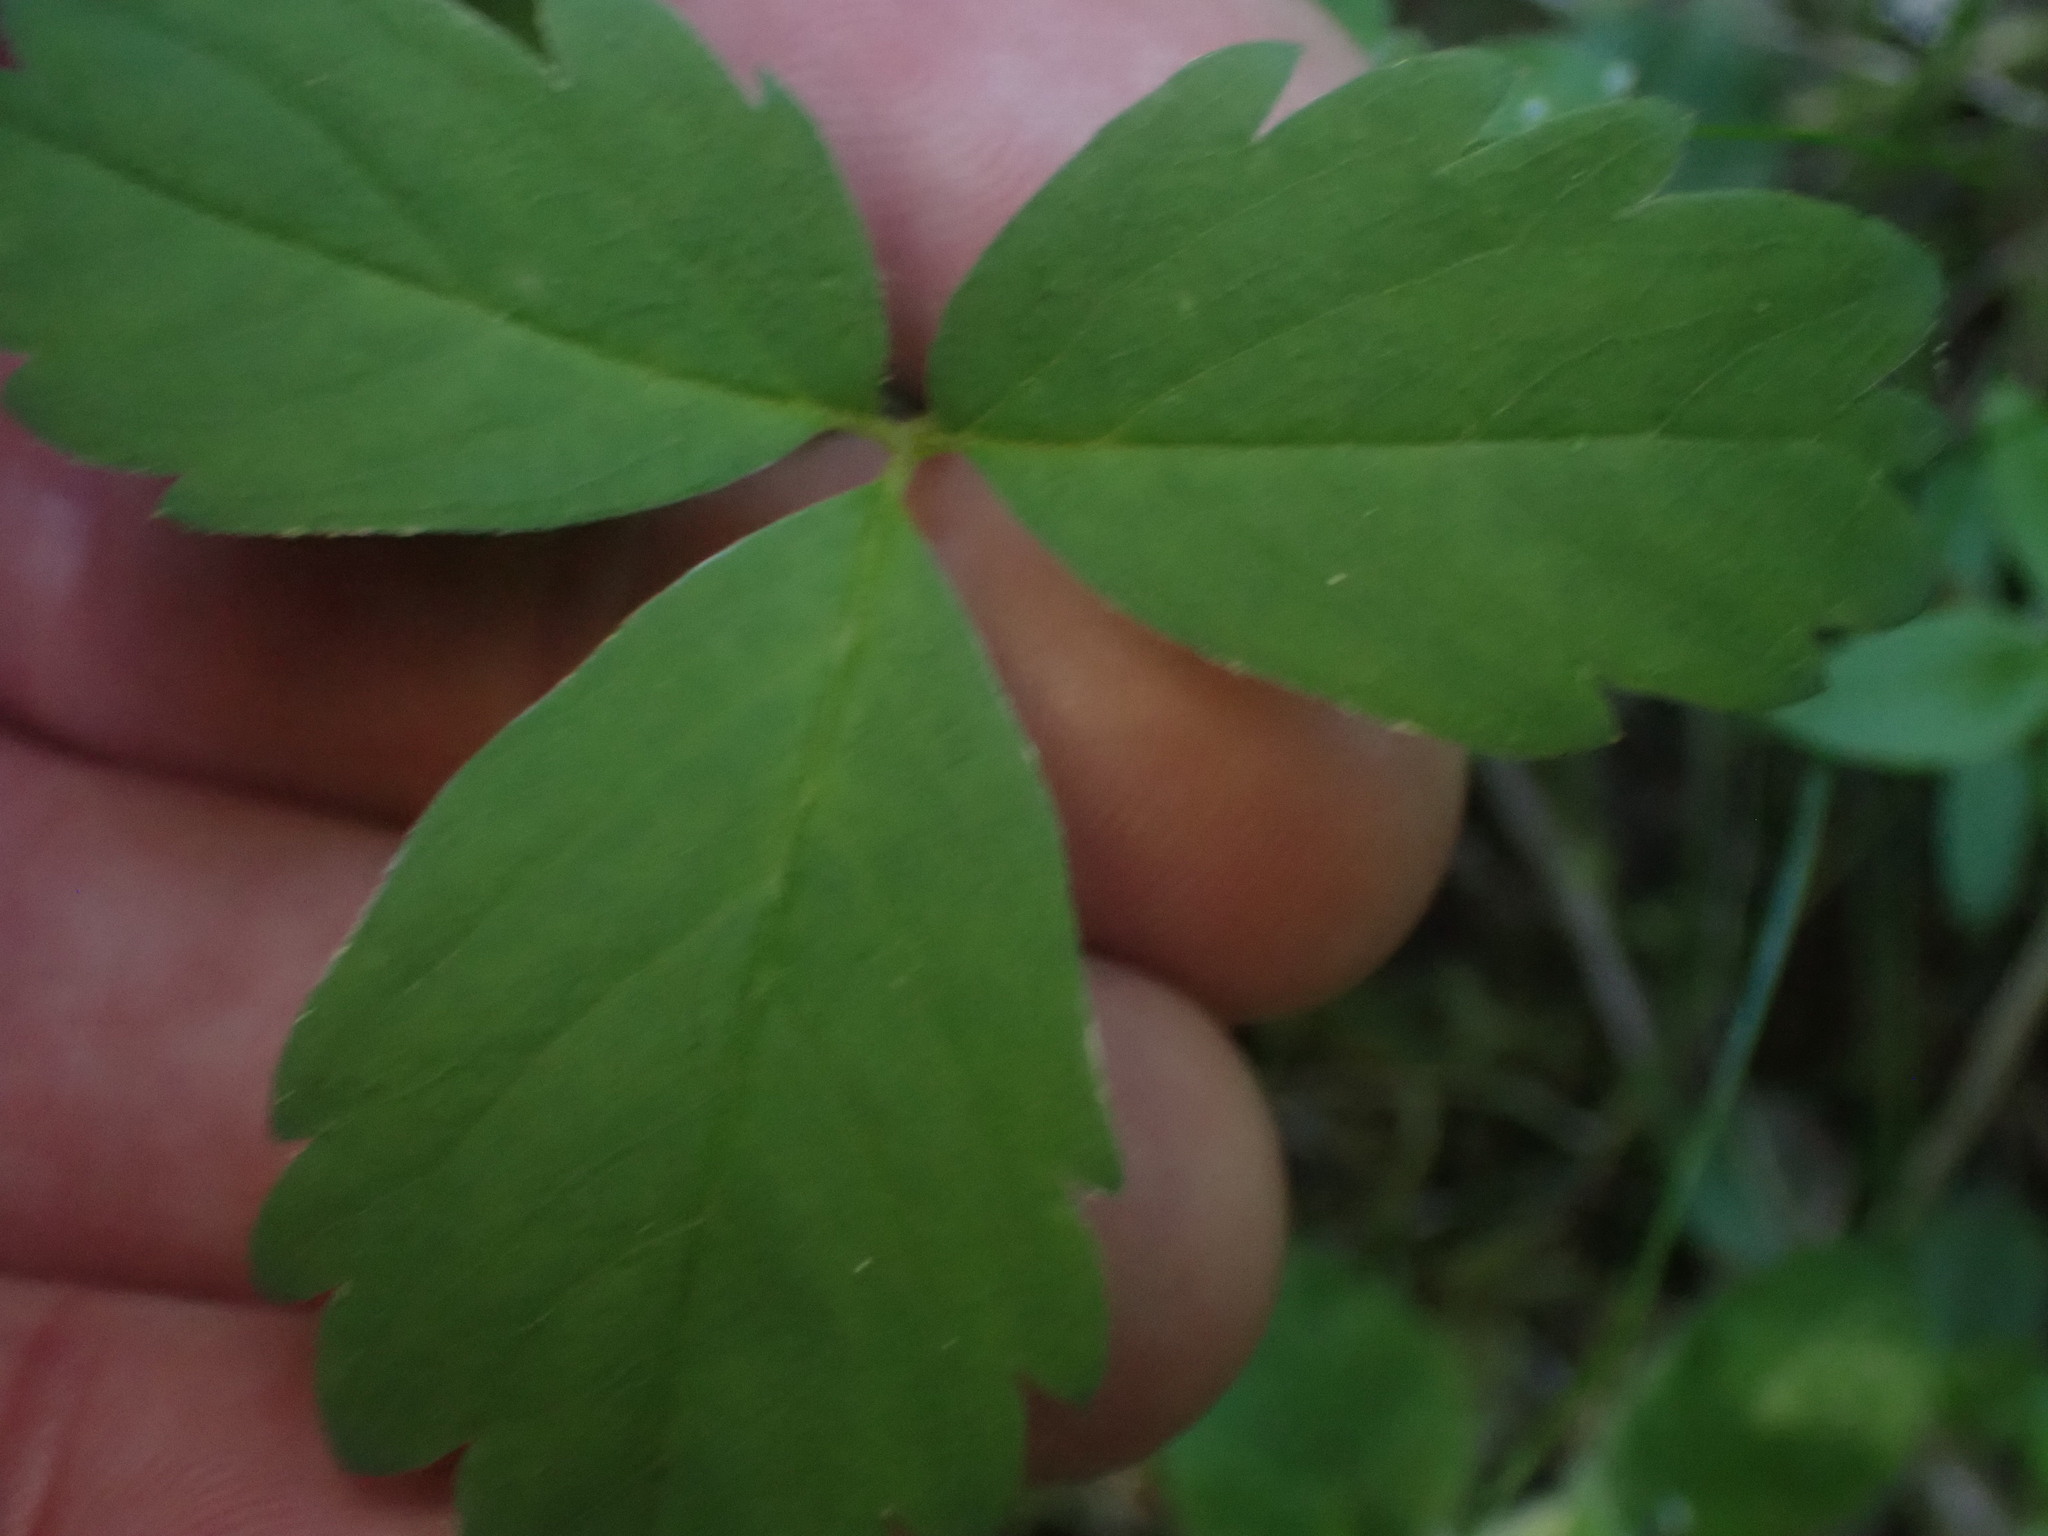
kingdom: Plantae
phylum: Tracheophyta
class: Magnoliopsida
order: Rosales
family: Rosaceae
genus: Fragaria
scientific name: Fragaria virginiana
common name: Thickleaved wild strawberry
